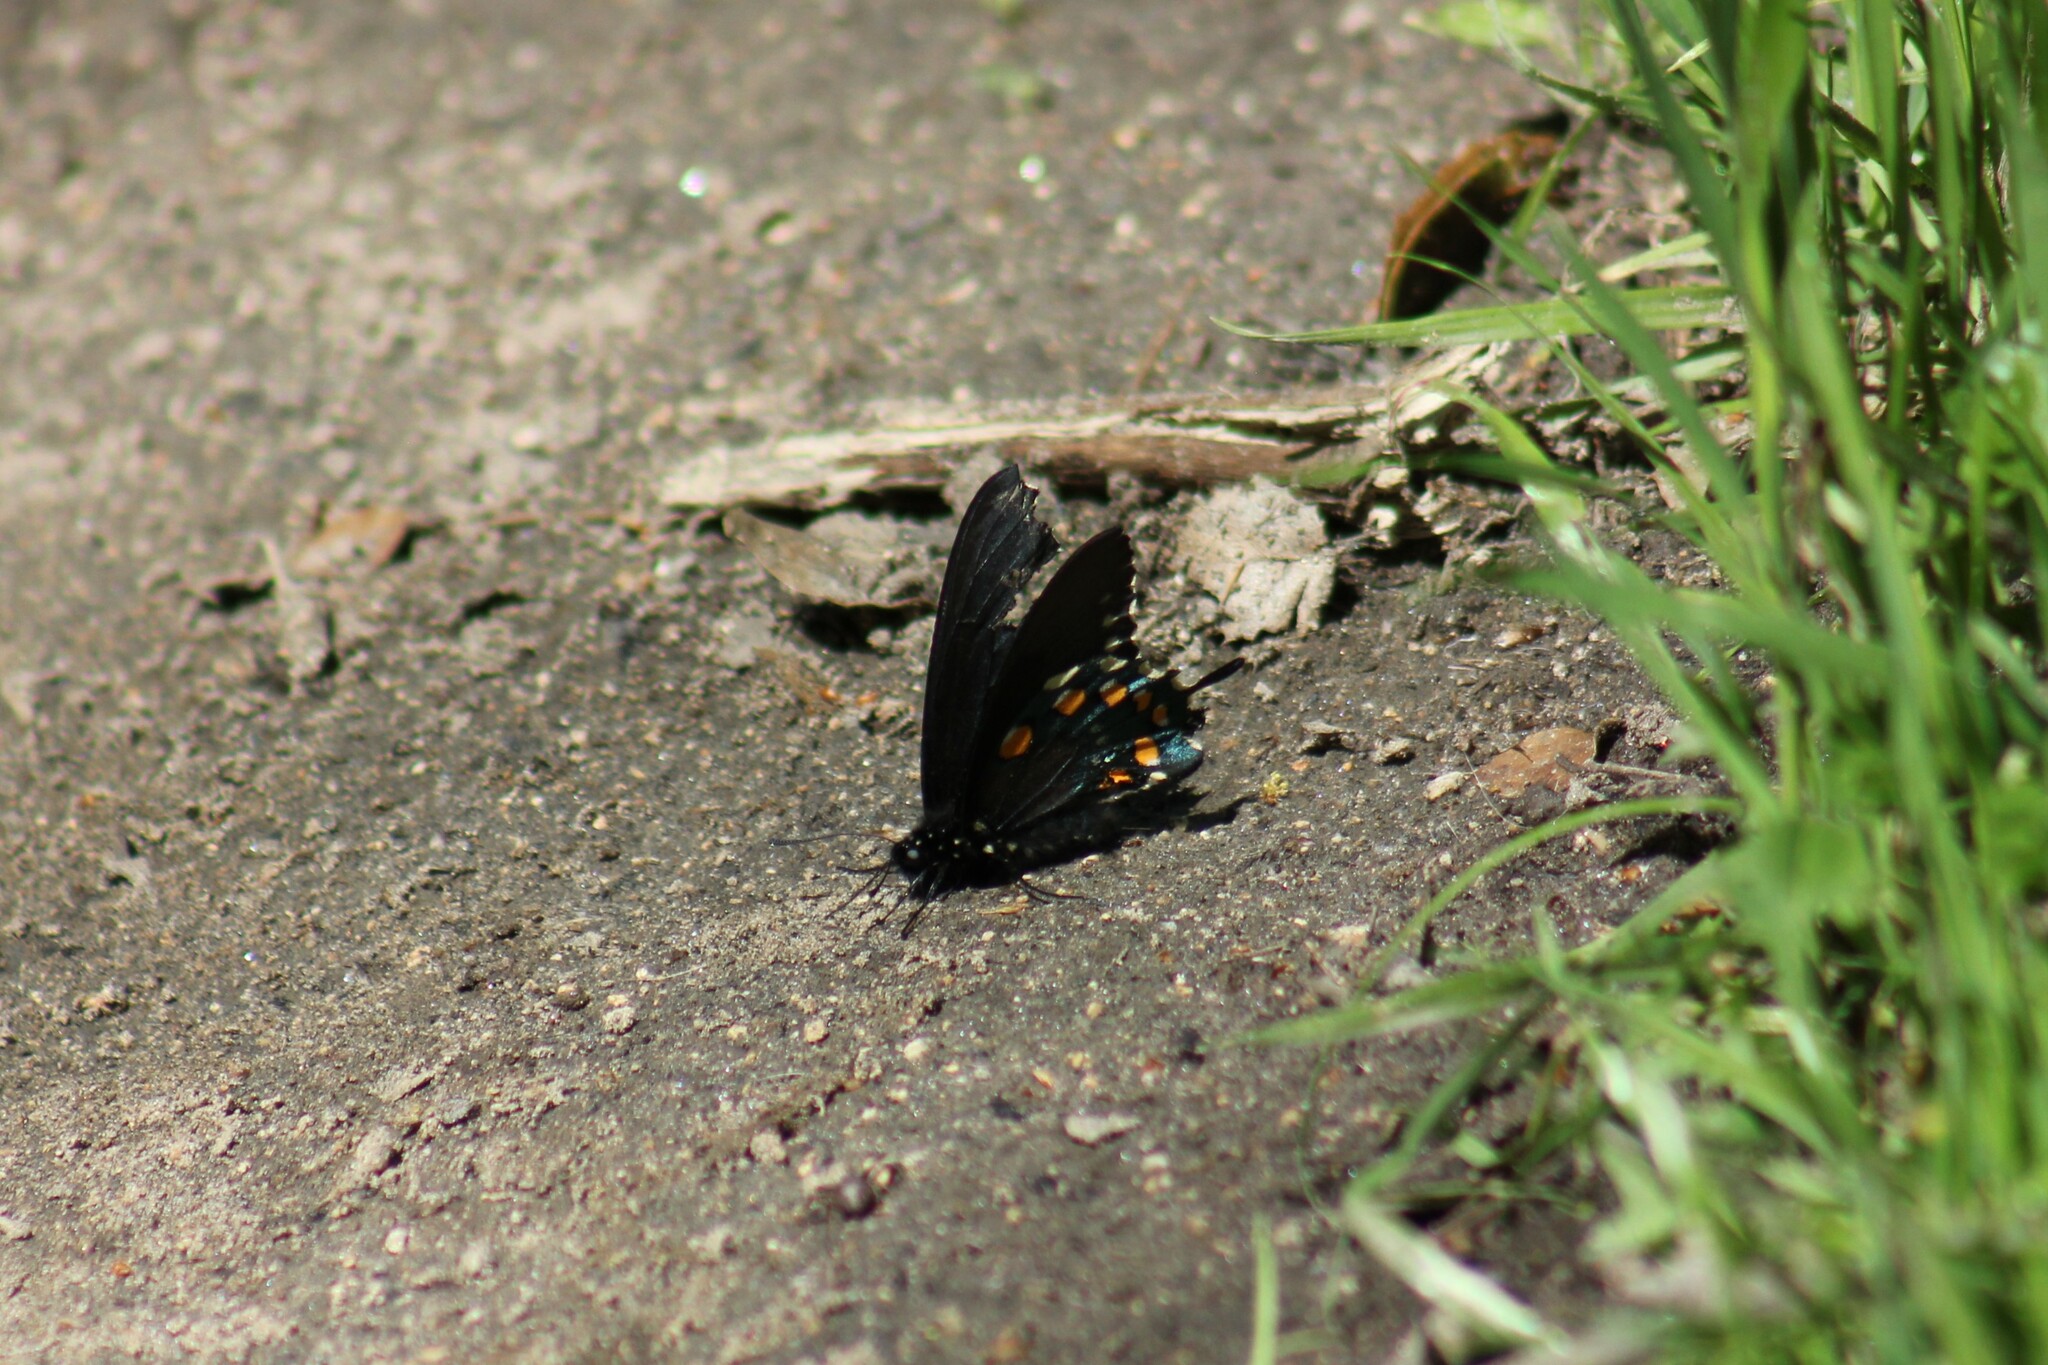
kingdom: Animalia
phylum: Arthropoda
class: Insecta
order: Lepidoptera
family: Papilionidae
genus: Battus
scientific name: Battus philenor
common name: Pipevine swallowtail
